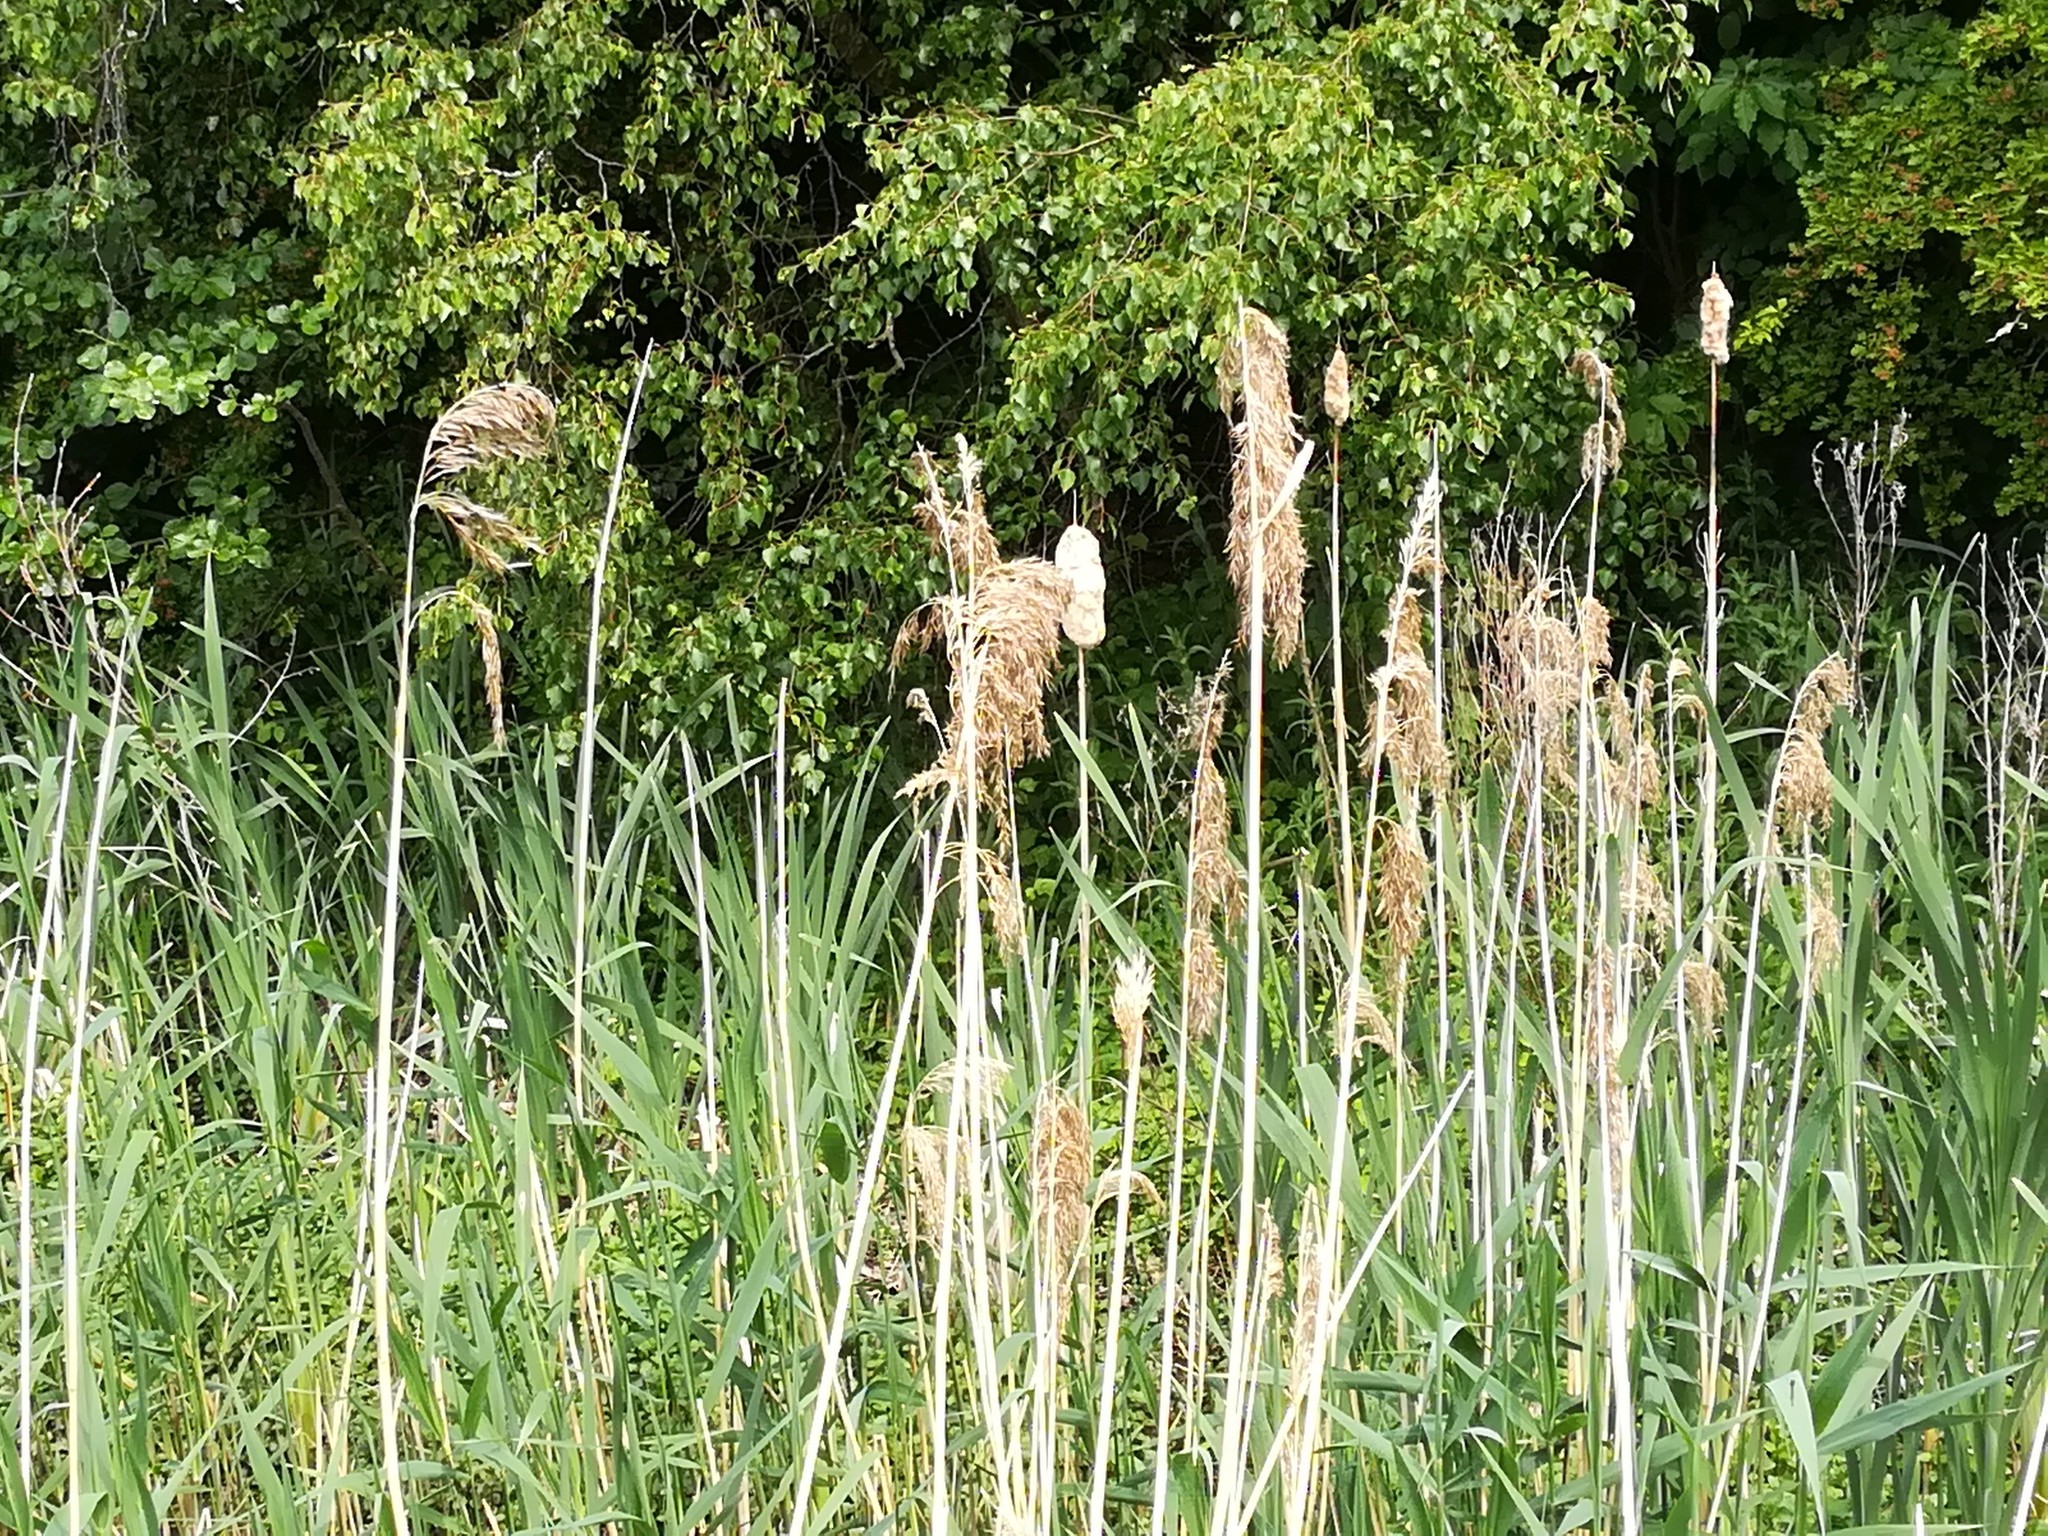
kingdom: Plantae
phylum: Tracheophyta
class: Liliopsida
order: Poales
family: Poaceae
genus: Phragmites
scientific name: Phragmites australis
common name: Common reed
